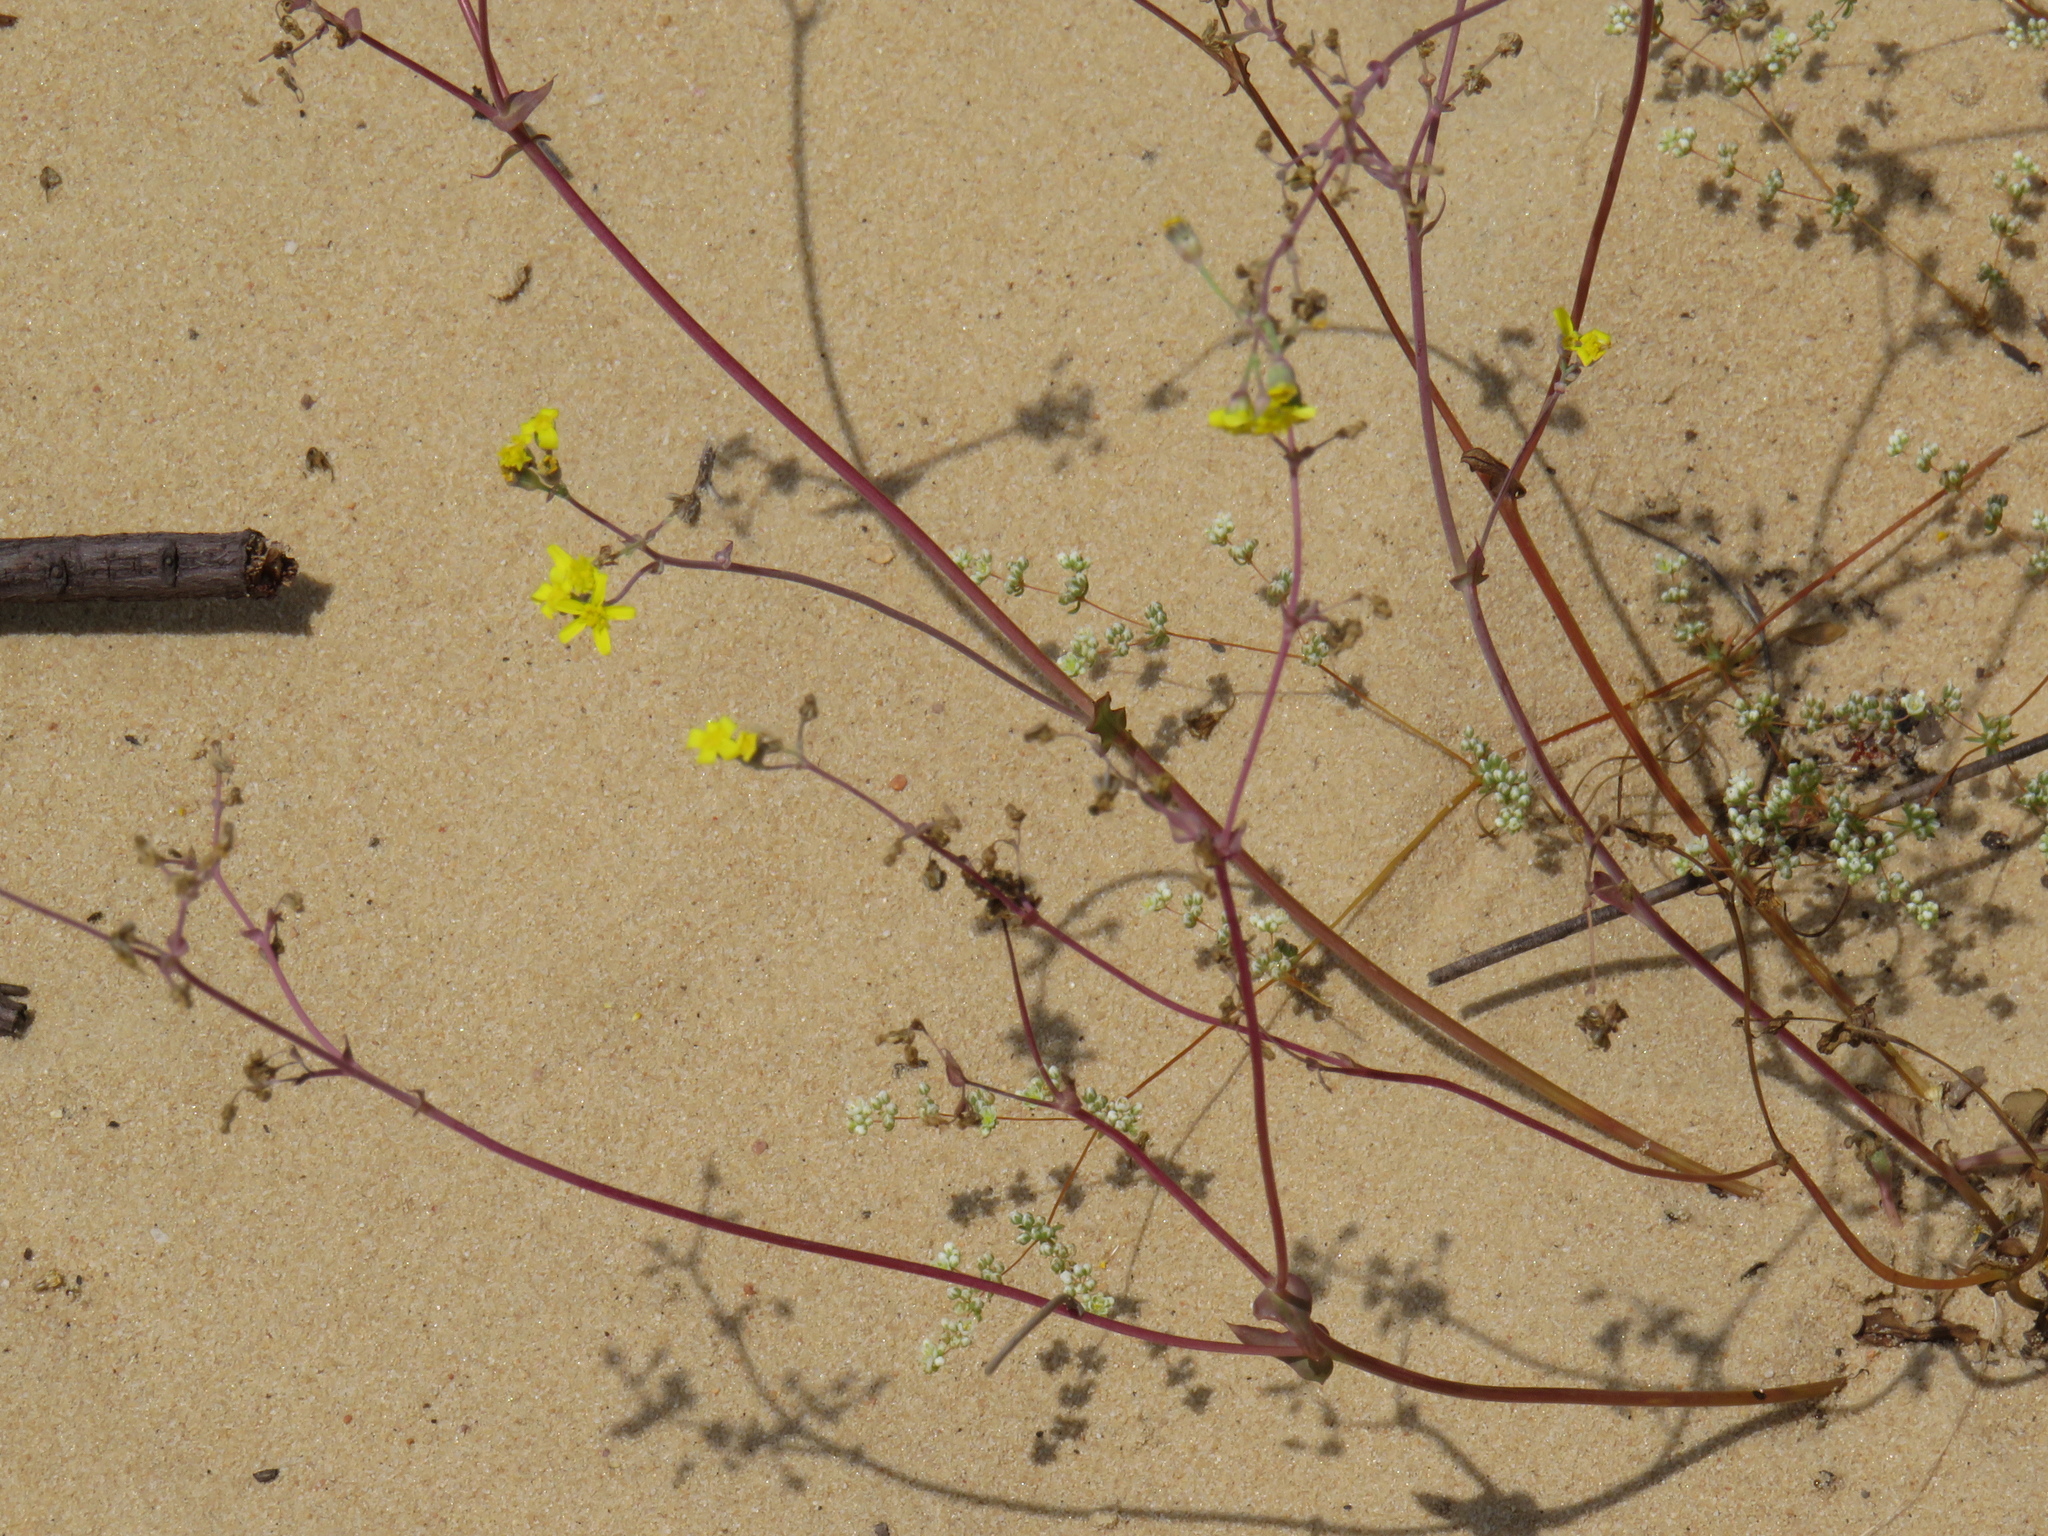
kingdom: Plantae
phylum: Tracheophyta
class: Magnoliopsida
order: Asterales
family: Asteraceae
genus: Gymnodiscus
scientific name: Gymnodiscus capillaris
